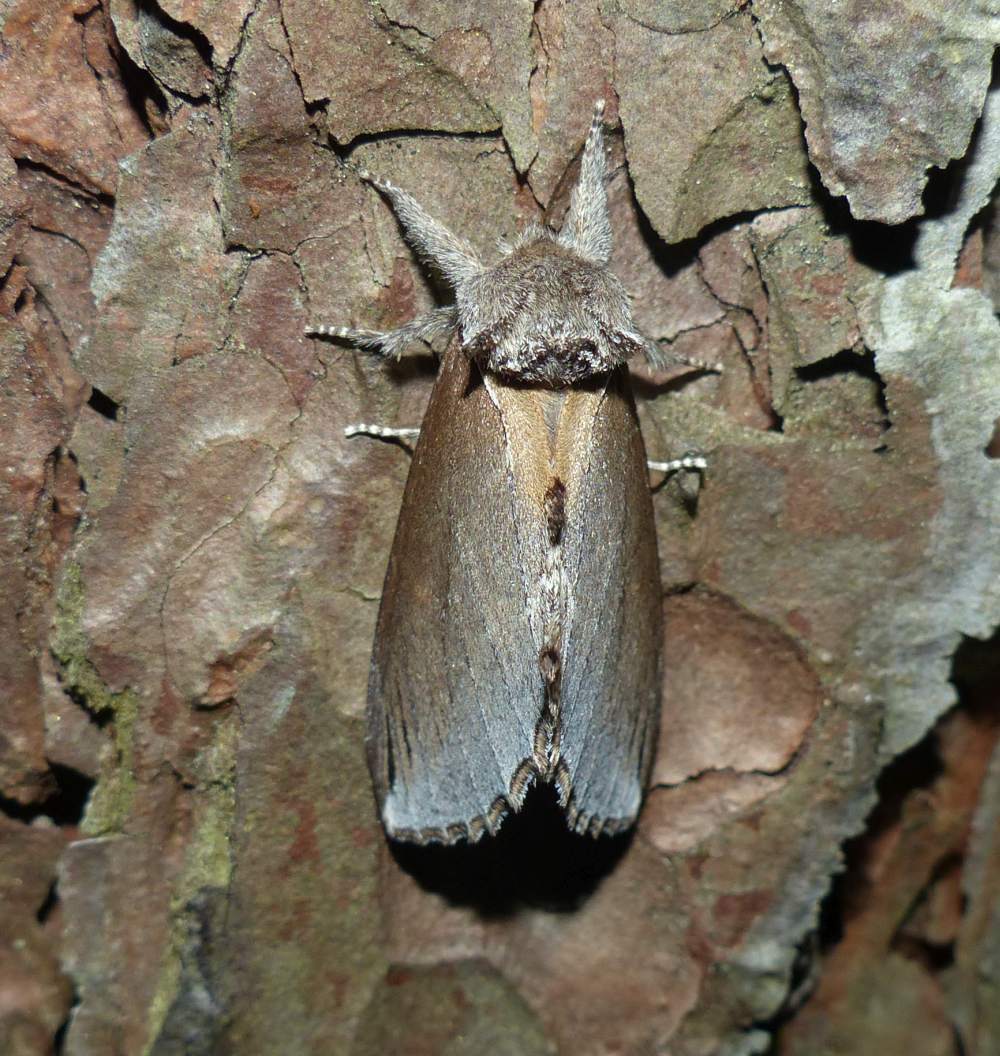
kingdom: Animalia
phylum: Arthropoda
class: Insecta
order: Lepidoptera
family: Notodontidae
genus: Pheosidea
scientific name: Pheosidea elegans
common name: Elegant prominent
